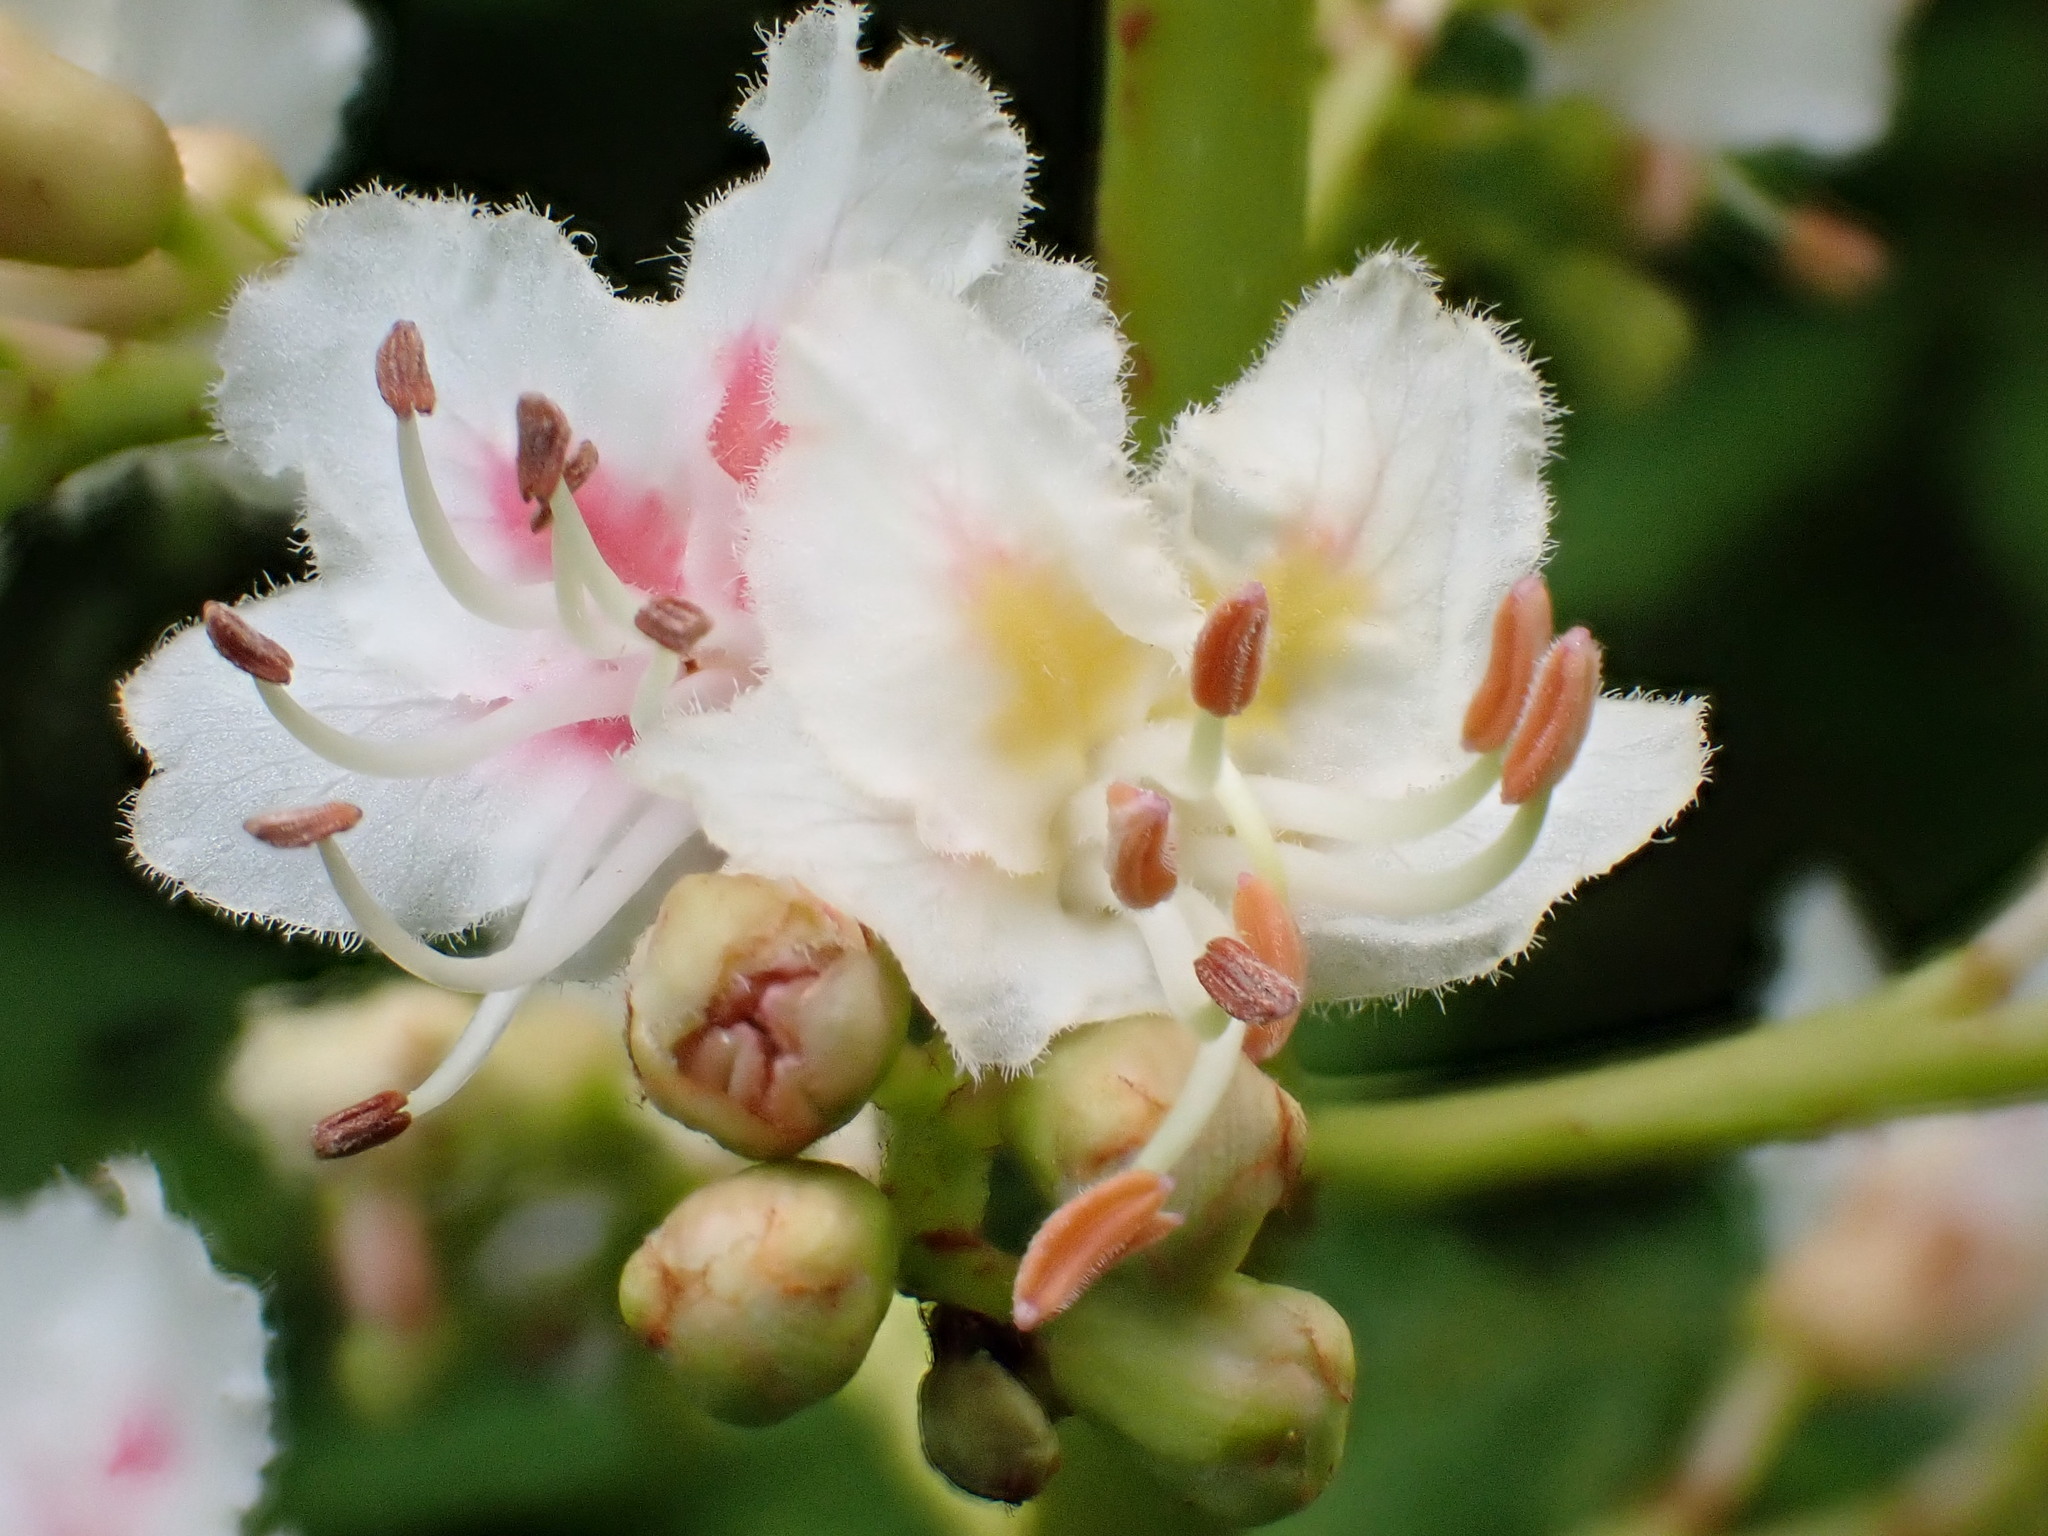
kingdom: Plantae
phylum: Tracheophyta
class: Magnoliopsida
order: Sapindales
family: Sapindaceae
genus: Aesculus
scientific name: Aesculus hippocastanum
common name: Horse-chestnut
